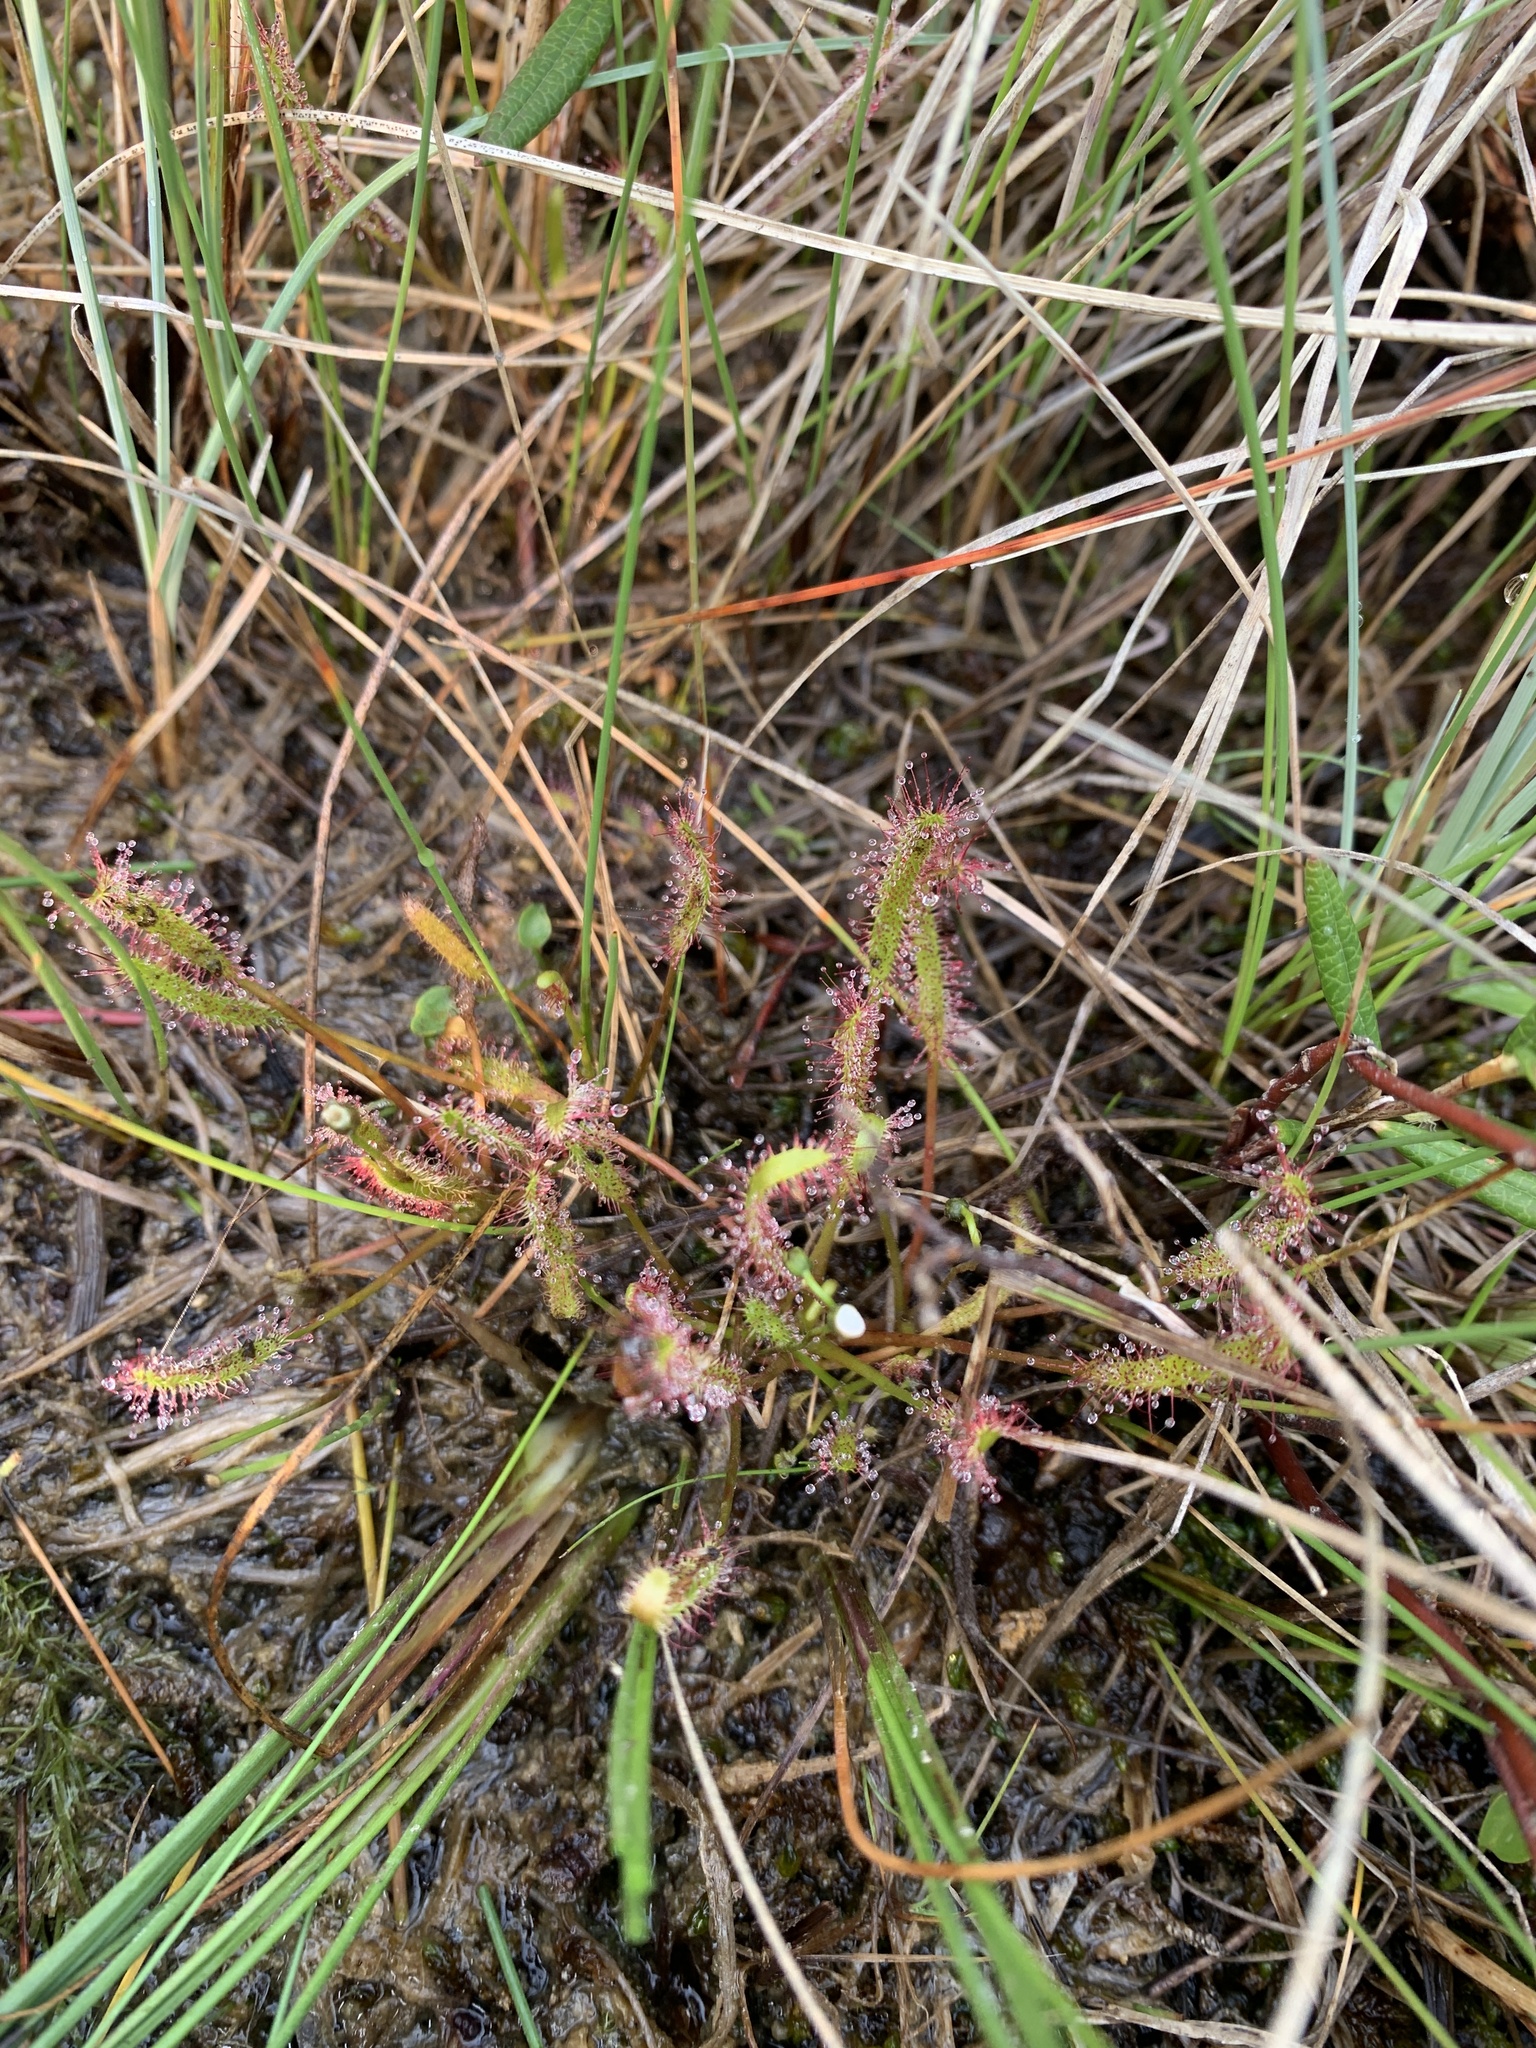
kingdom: Plantae
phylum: Tracheophyta
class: Magnoliopsida
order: Caryophyllales
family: Droseraceae
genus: Drosera
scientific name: Drosera linearis
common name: Linear-leaved sundew
